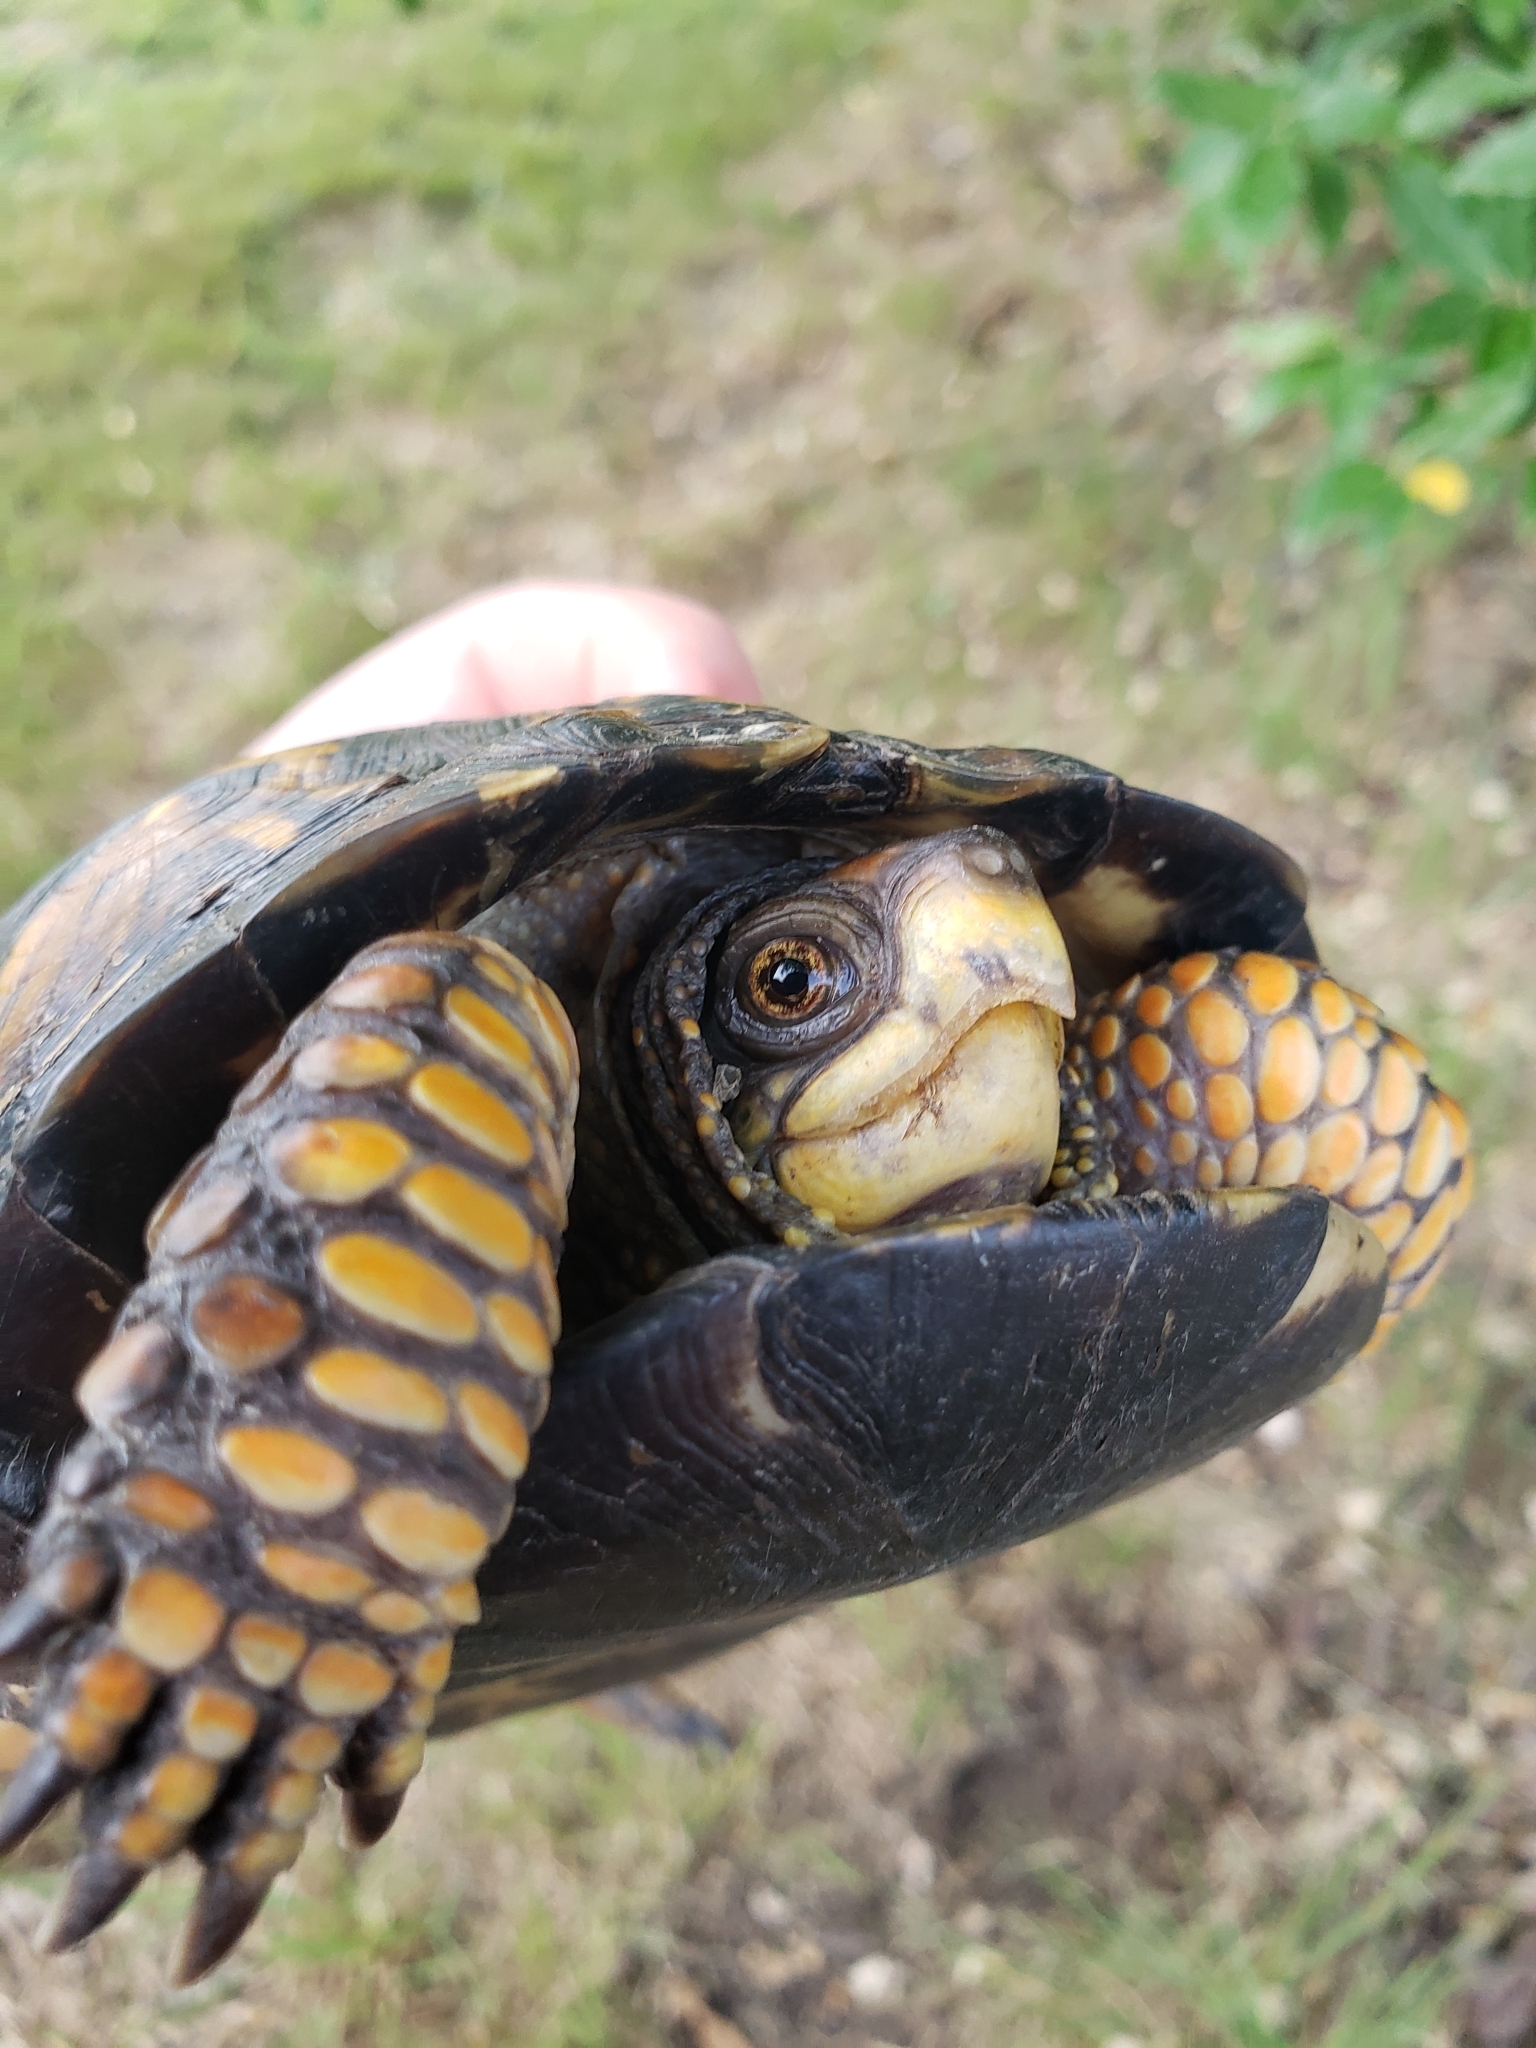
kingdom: Animalia
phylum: Chordata
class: Testudines
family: Emydidae
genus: Terrapene
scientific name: Terrapene carolina
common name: Common box turtle
